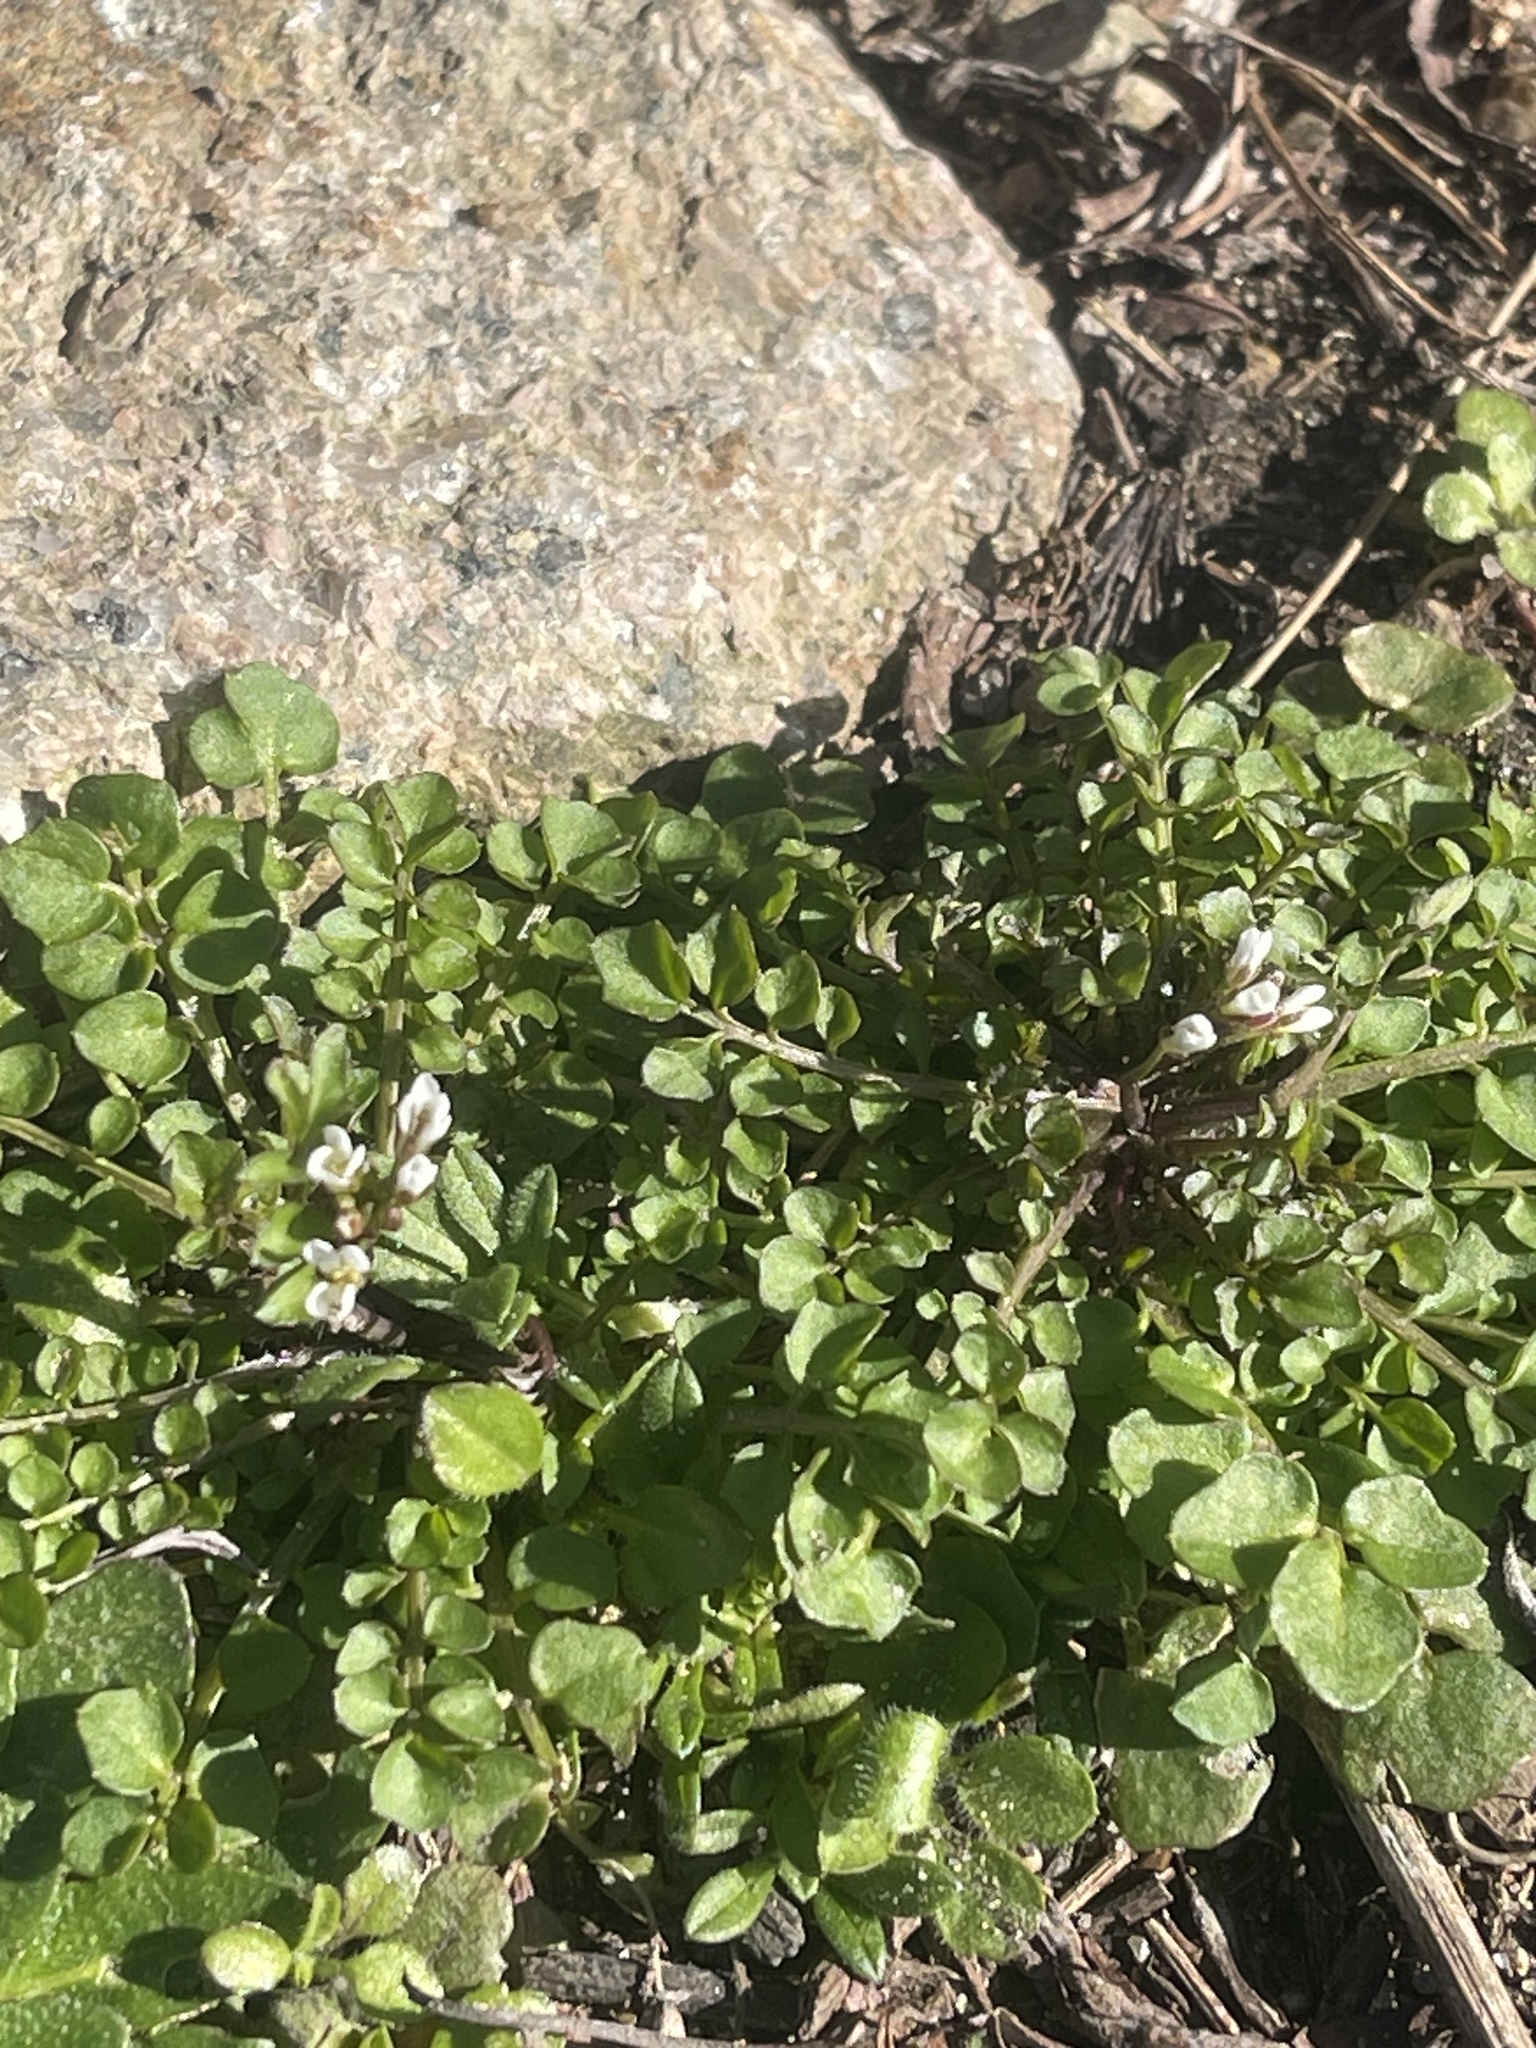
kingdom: Plantae
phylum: Tracheophyta
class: Magnoliopsida
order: Brassicales
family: Brassicaceae
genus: Cardamine
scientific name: Cardamine hirsuta
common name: Hairy bittercress
